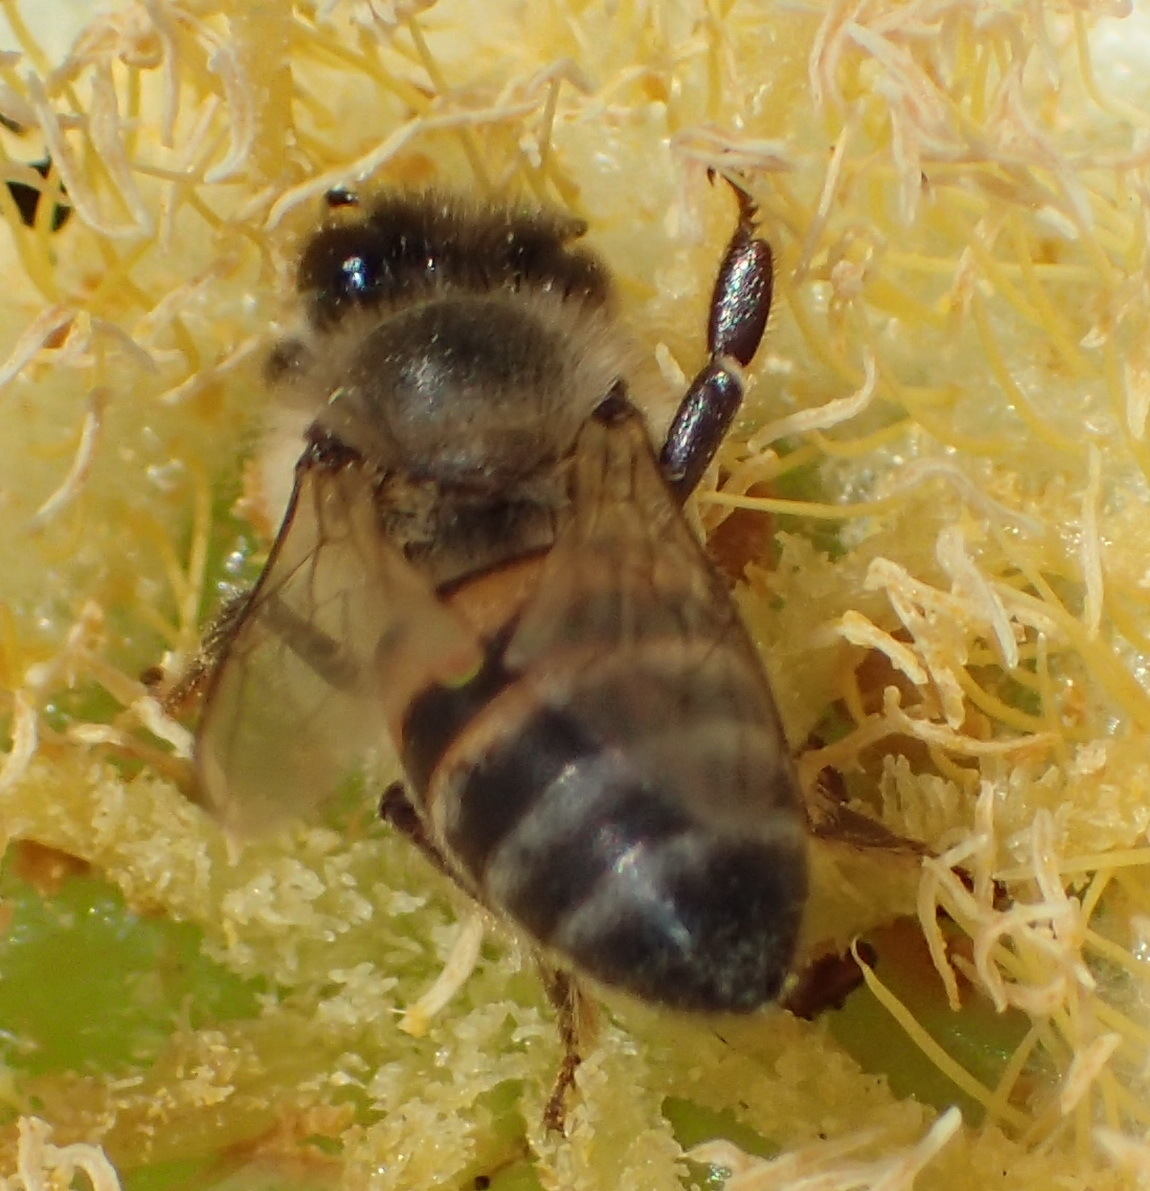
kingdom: Animalia
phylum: Arthropoda
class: Insecta
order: Hymenoptera
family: Apidae
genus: Apis
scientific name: Apis mellifera
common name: Honey bee
